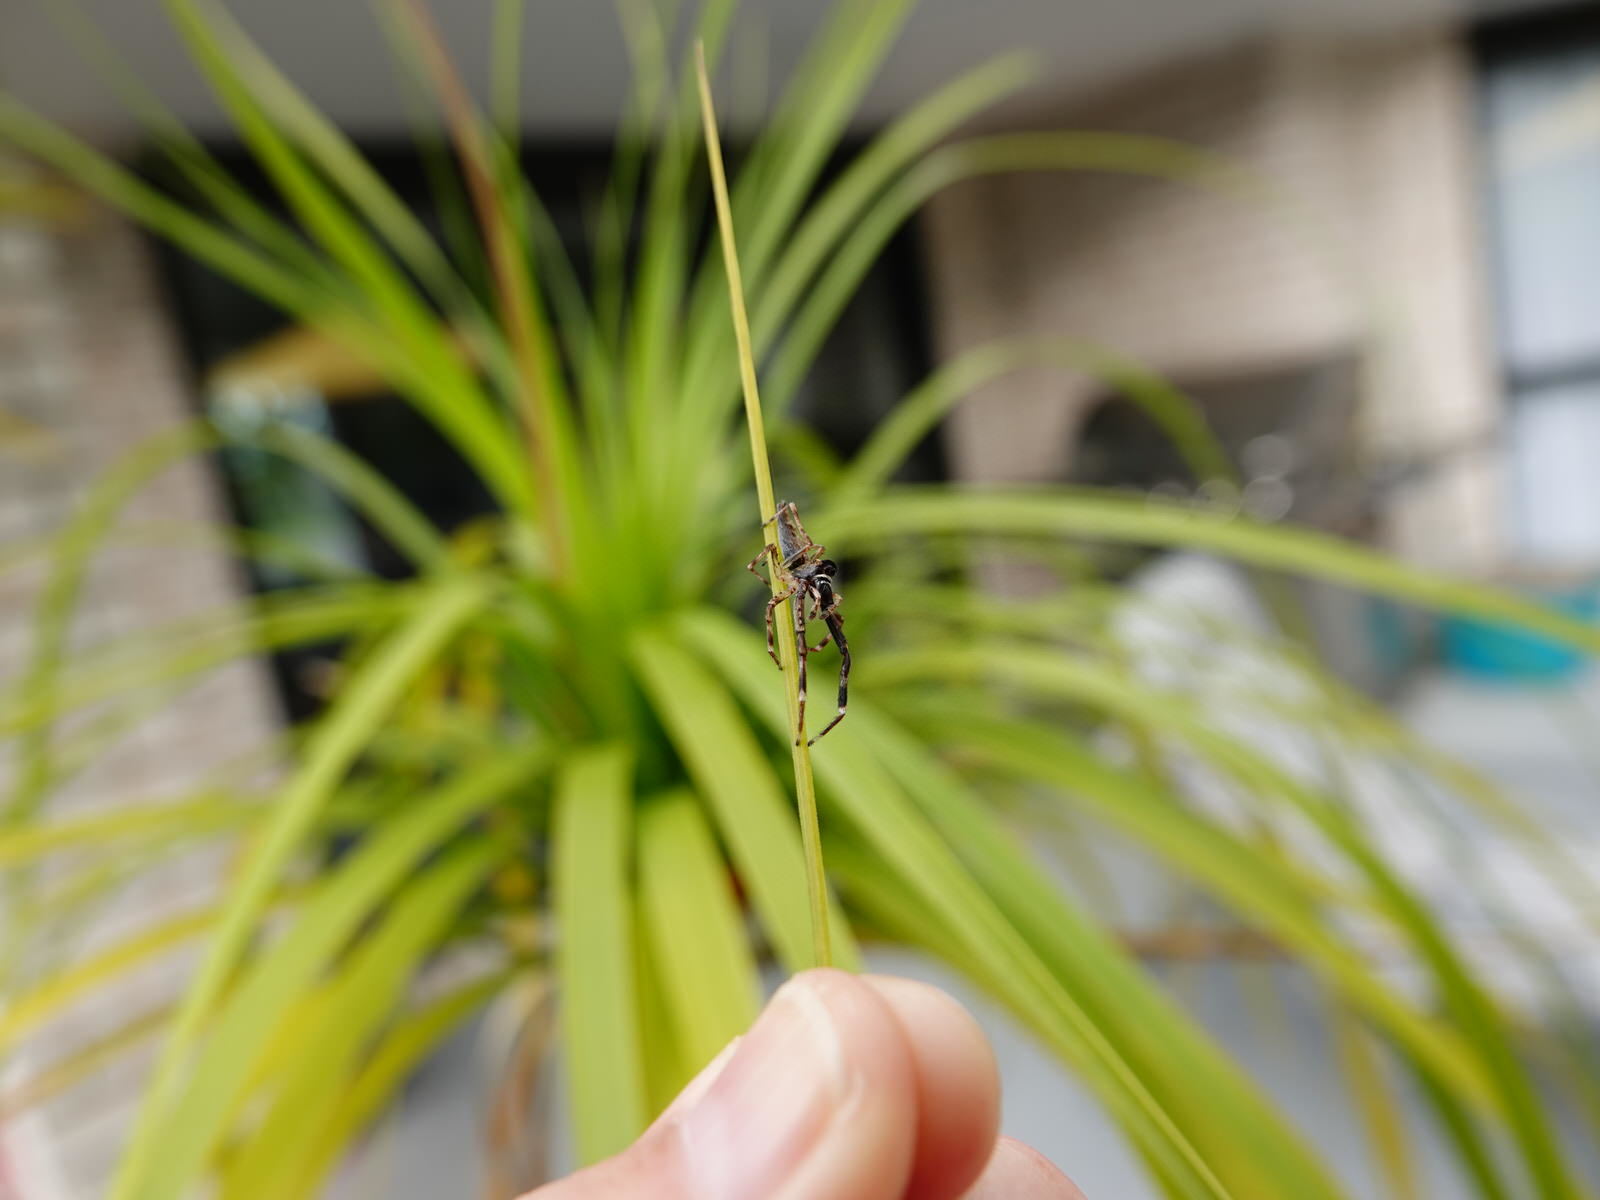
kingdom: Animalia
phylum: Arthropoda
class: Arachnida
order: Araneae
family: Salticidae
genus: Helpis
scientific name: Helpis minitabunda
